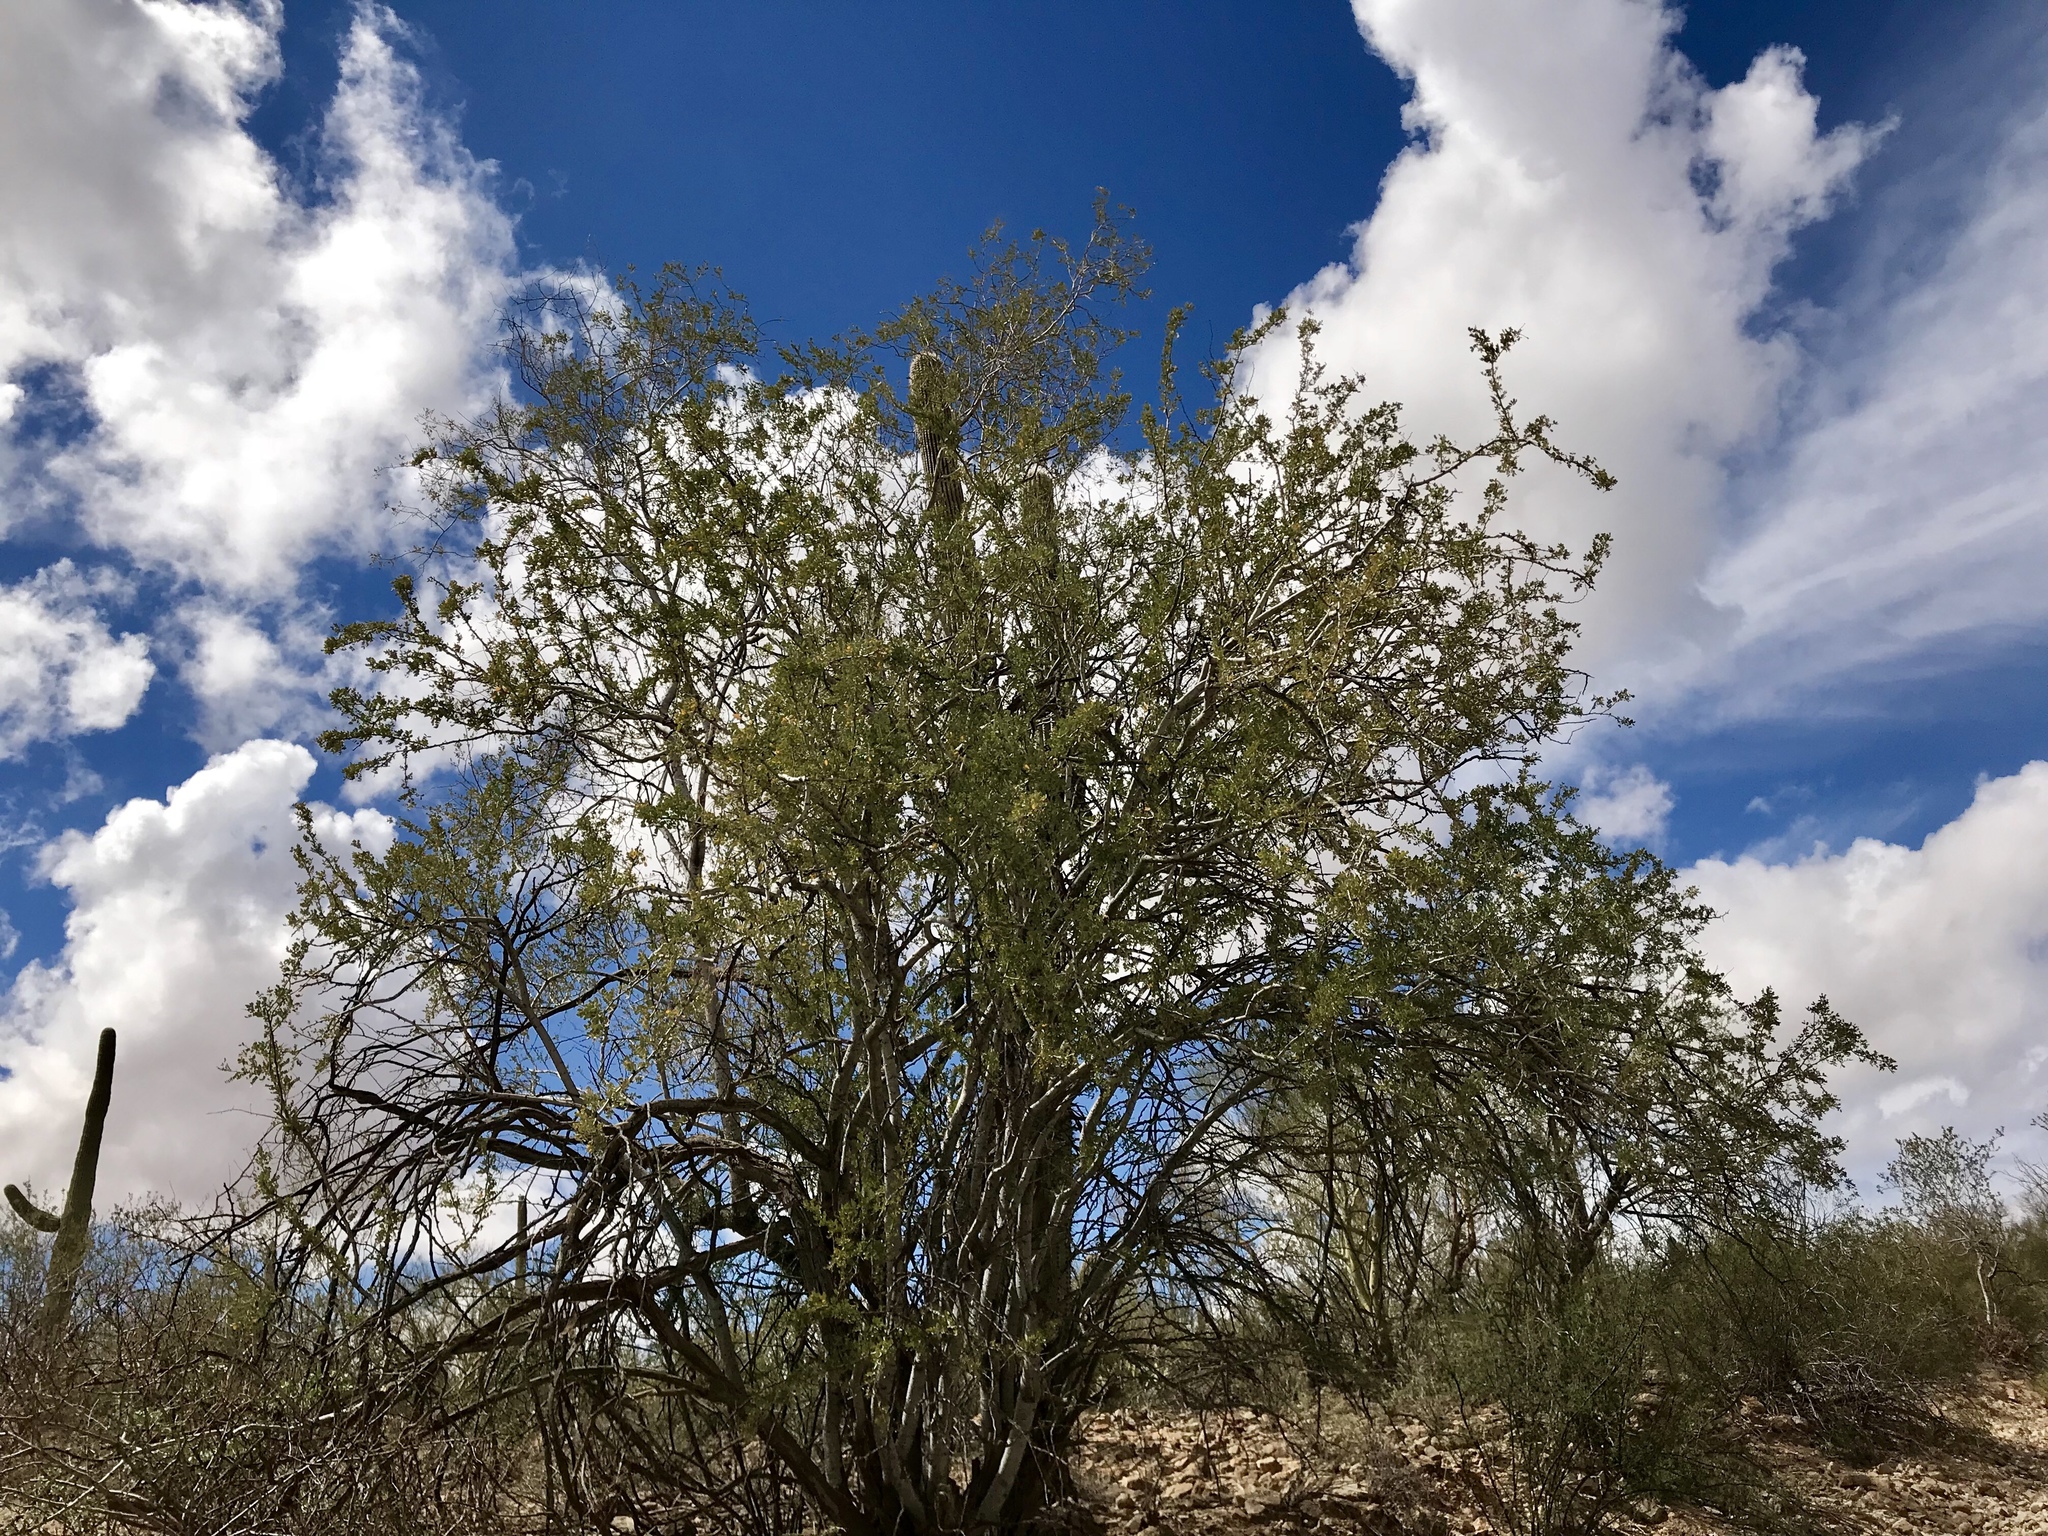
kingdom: Plantae
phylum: Tracheophyta
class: Magnoliopsida
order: Fabales
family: Fabaceae
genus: Olneya
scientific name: Olneya tesota
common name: Desert ironwood
